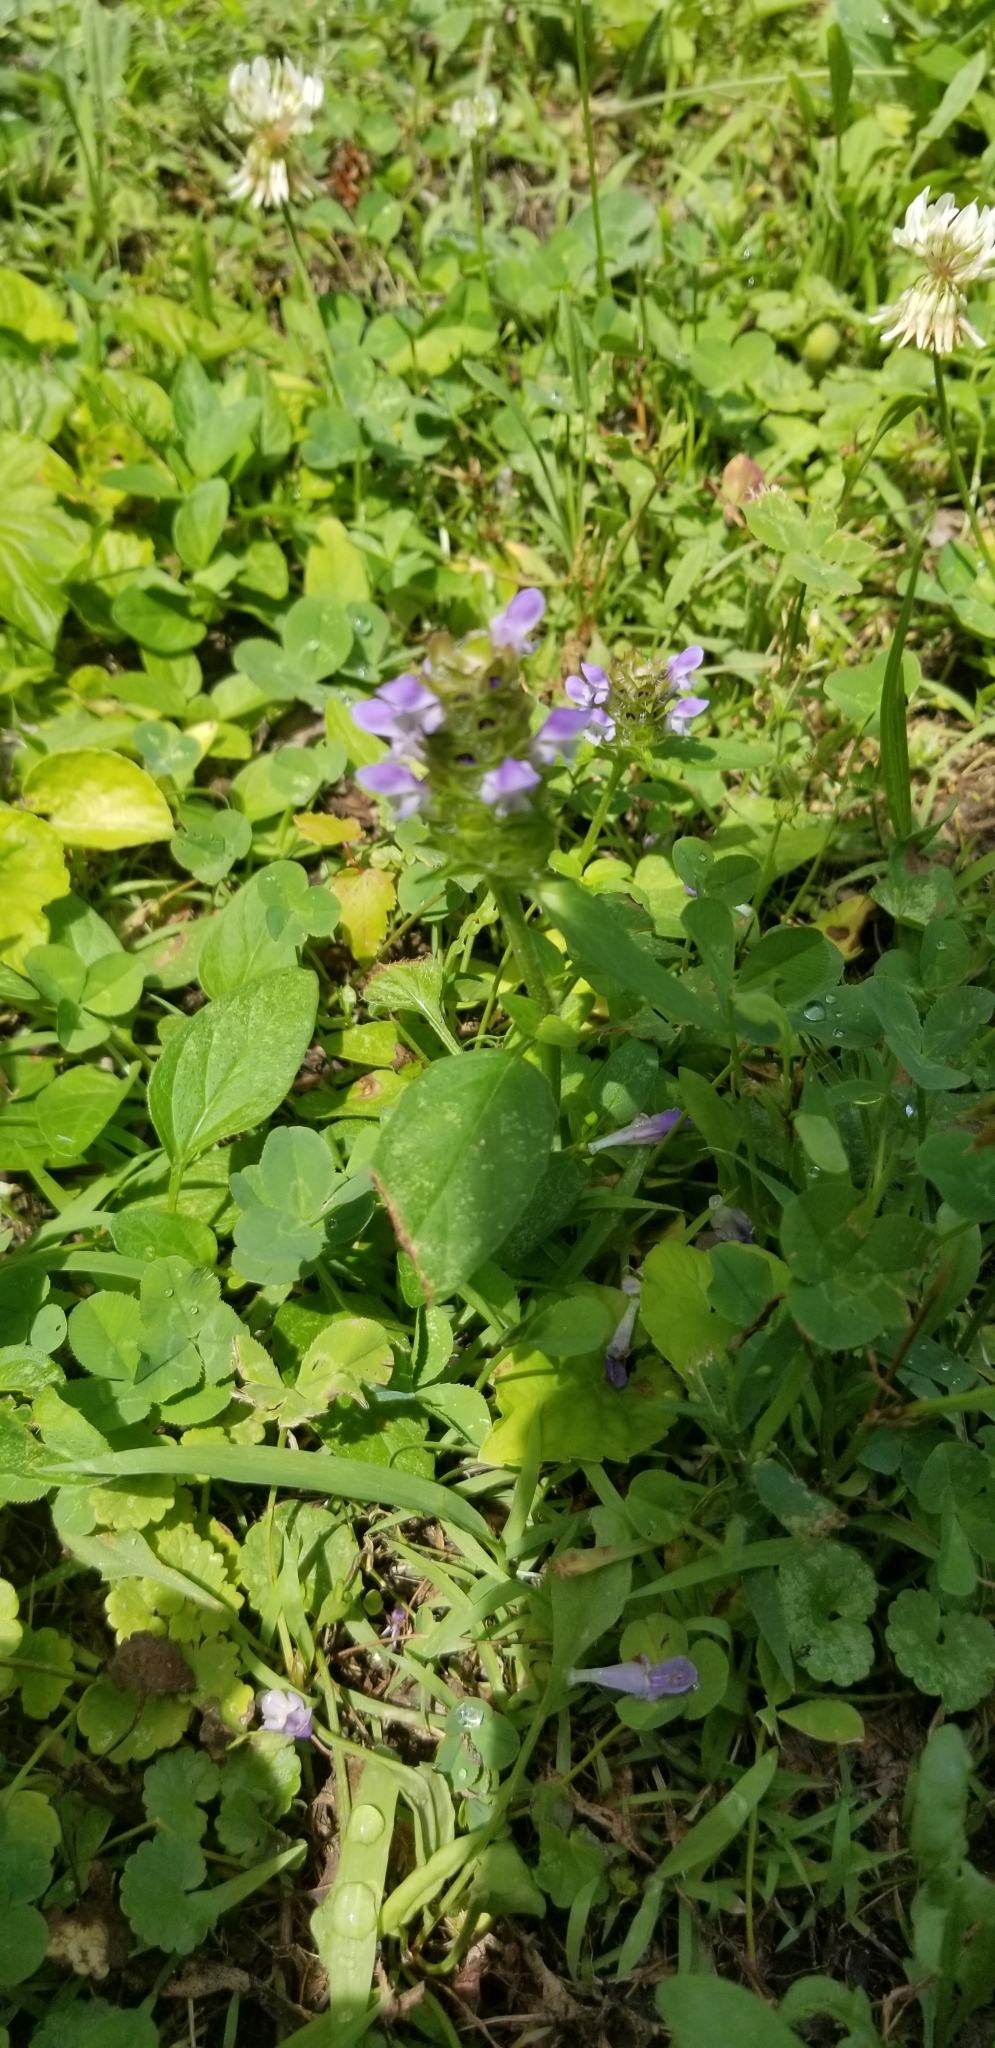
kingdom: Plantae
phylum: Tracheophyta
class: Magnoliopsida
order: Lamiales
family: Lamiaceae
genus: Prunella
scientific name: Prunella vulgaris
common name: Heal-all
